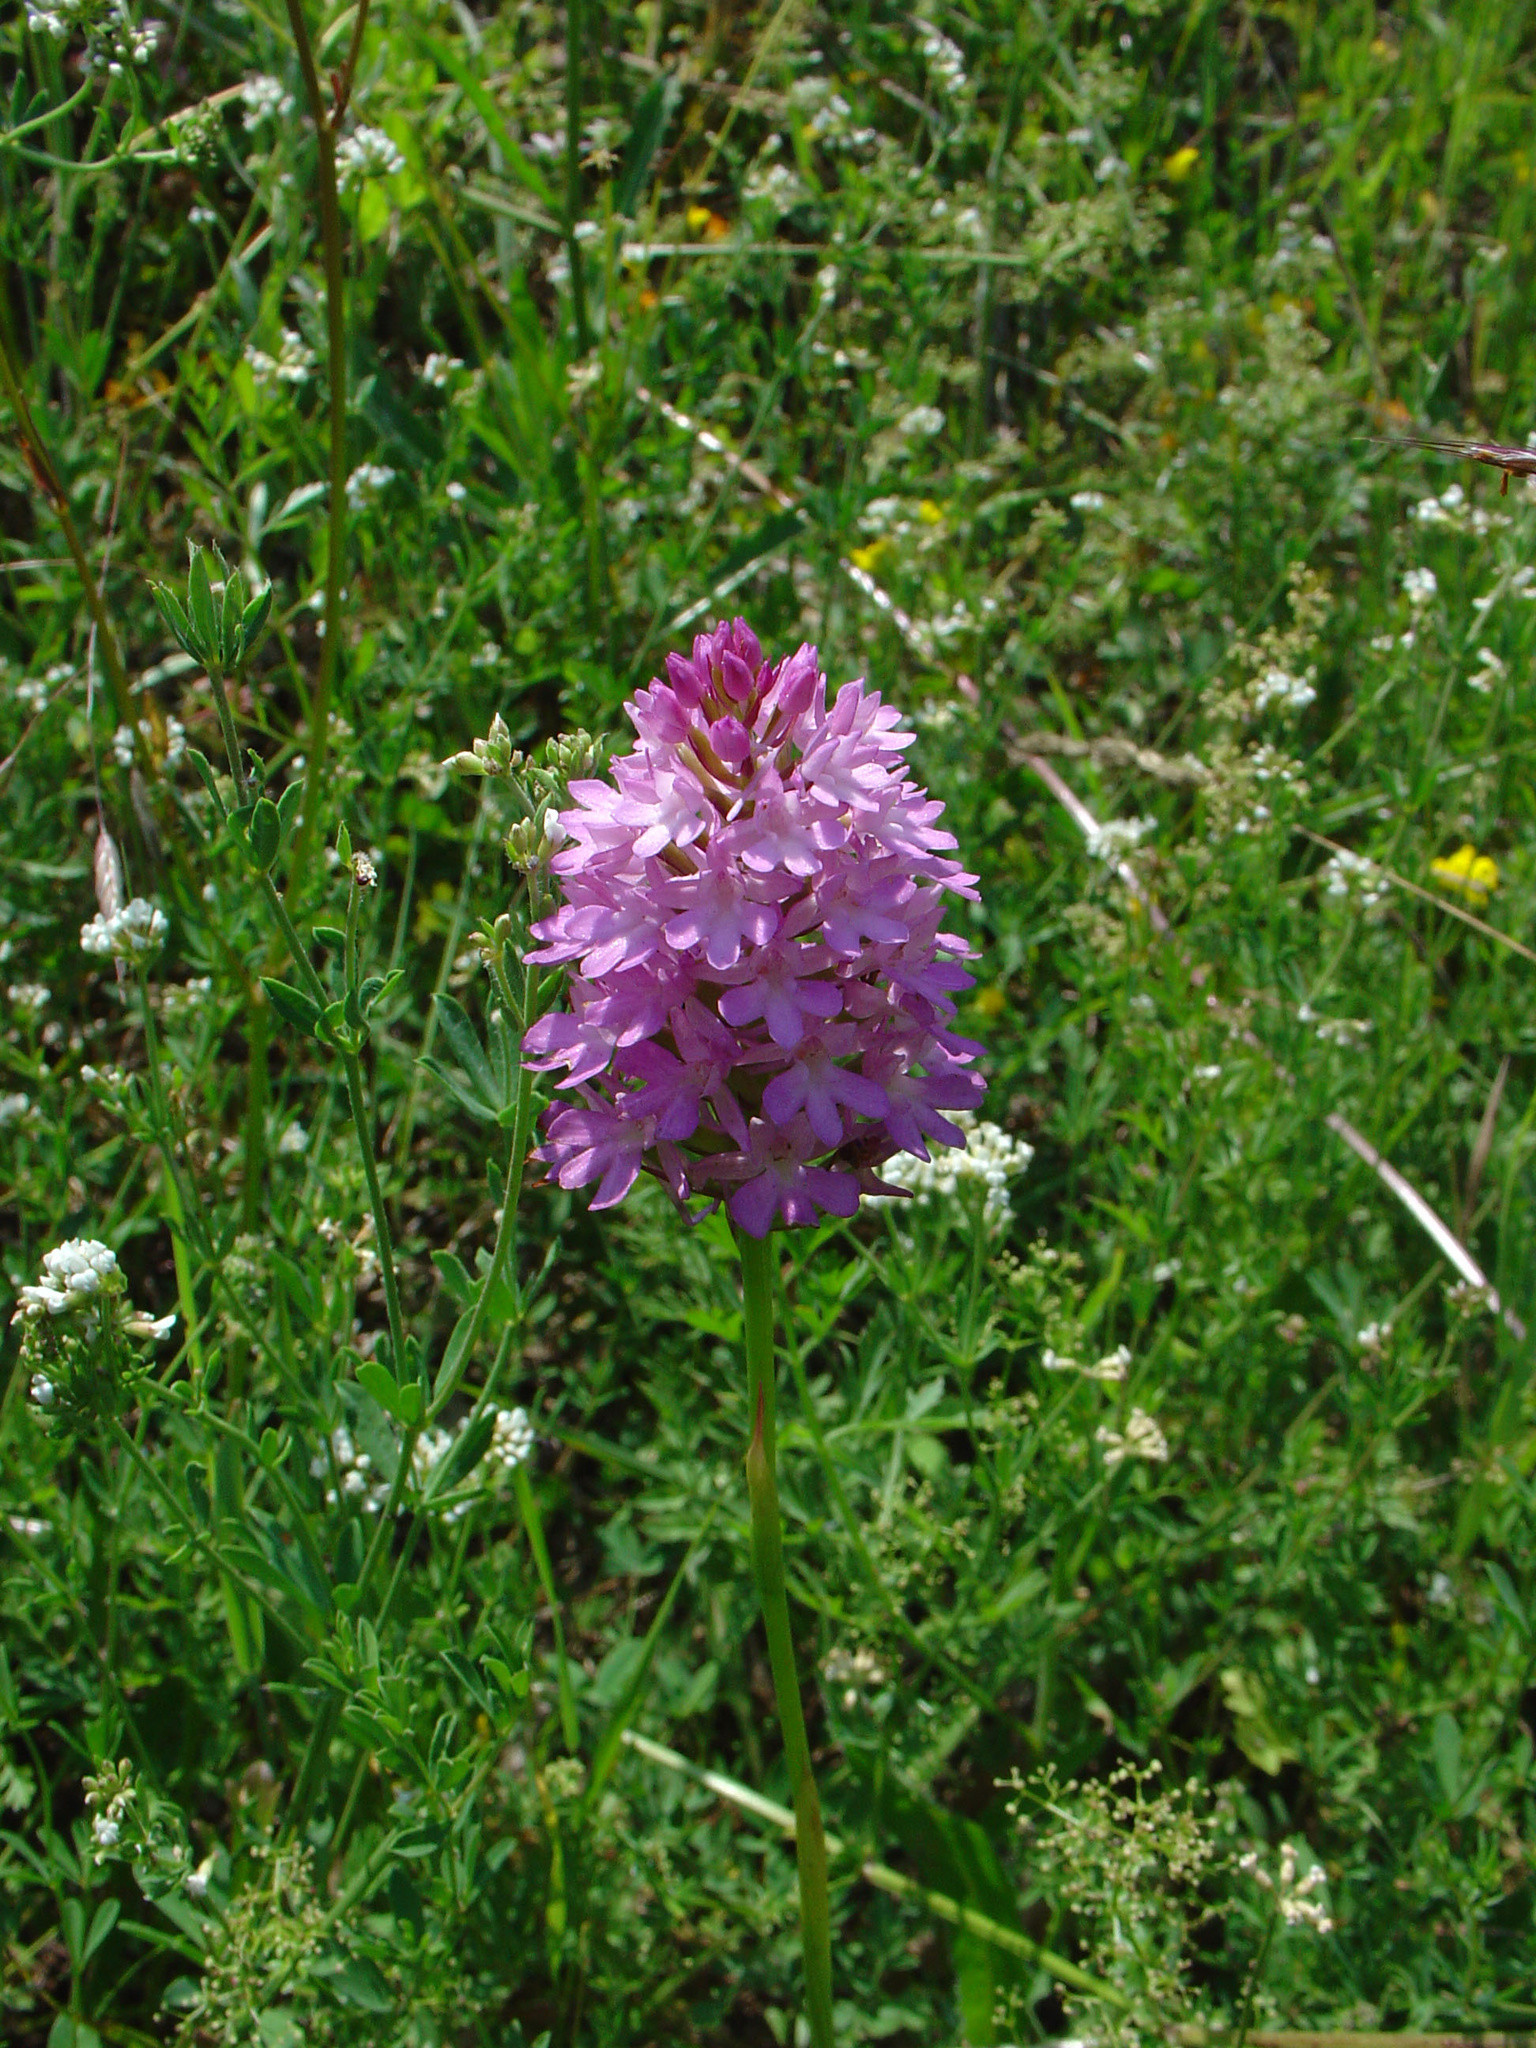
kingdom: Plantae
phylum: Tracheophyta
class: Liliopsida
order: Asparagales
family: Orchidaceae
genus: Anacamptis
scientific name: Anacamptis pyramidalis
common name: Pyramidal orchid
